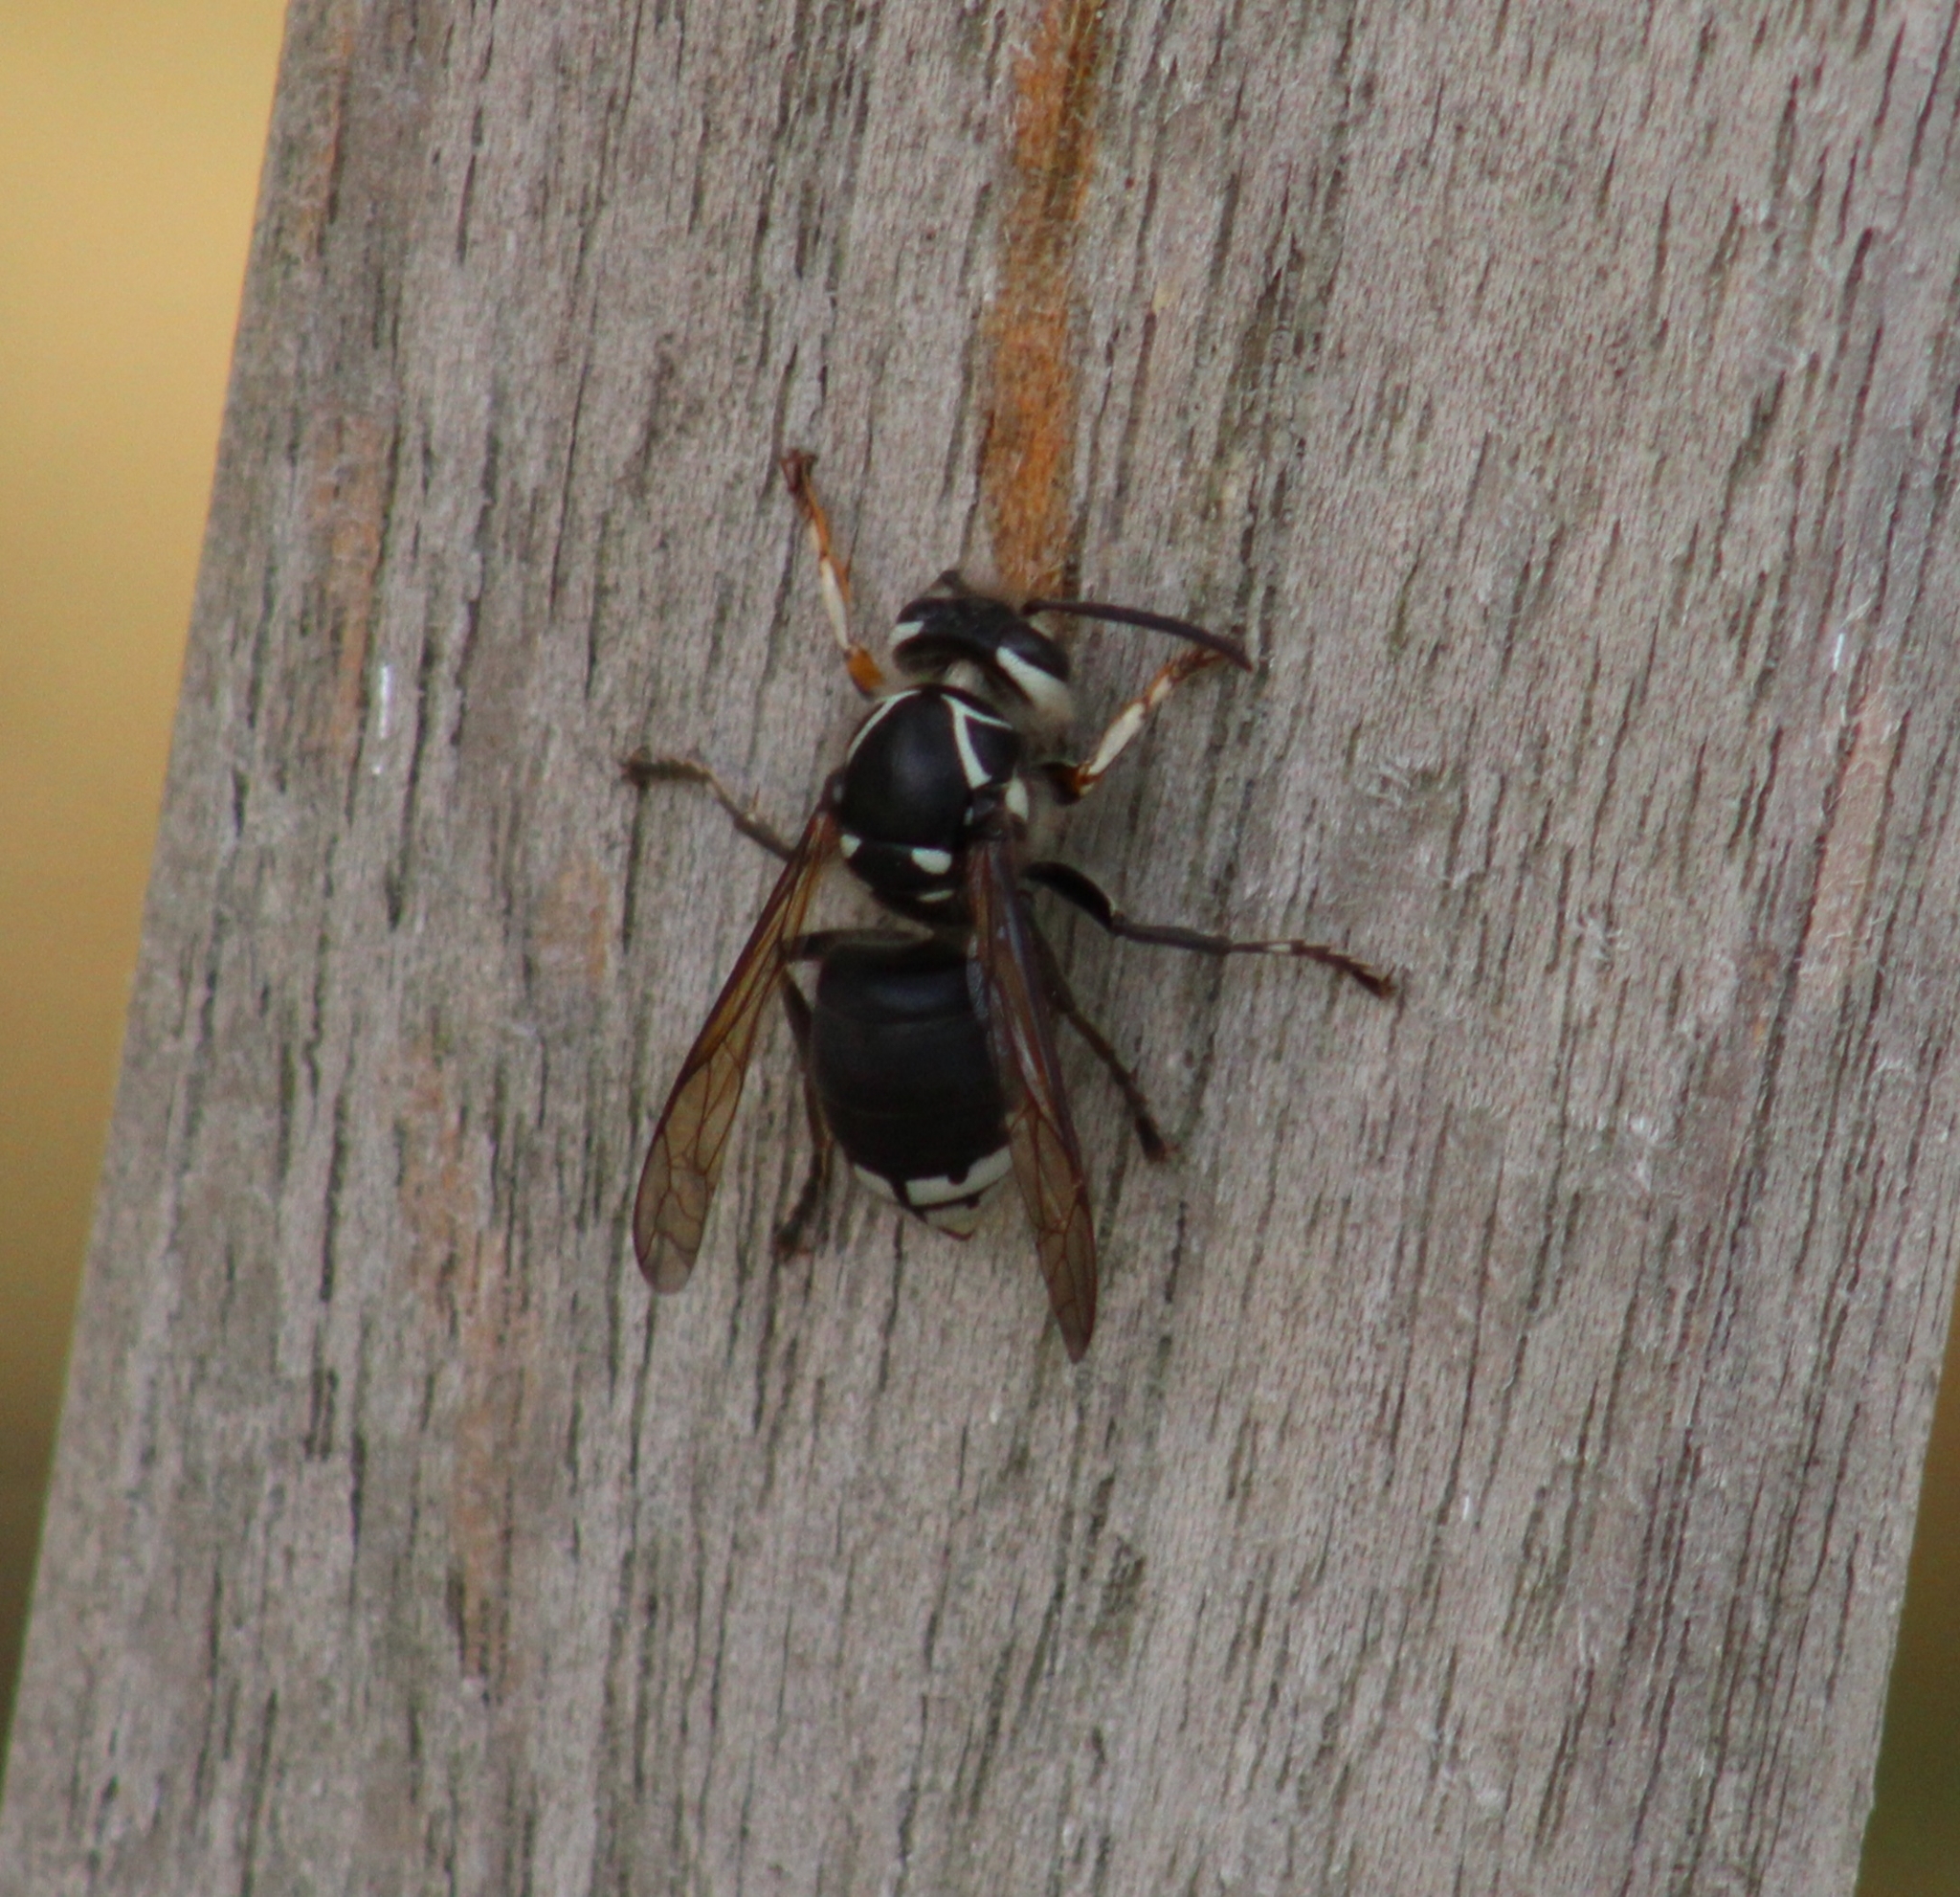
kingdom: Animalia
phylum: Arthropoda
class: Insecta
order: Hymenoptera
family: Vespidae
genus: Dolichovespula
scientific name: Dolichovespula maculata
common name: Bald-faced hornet
